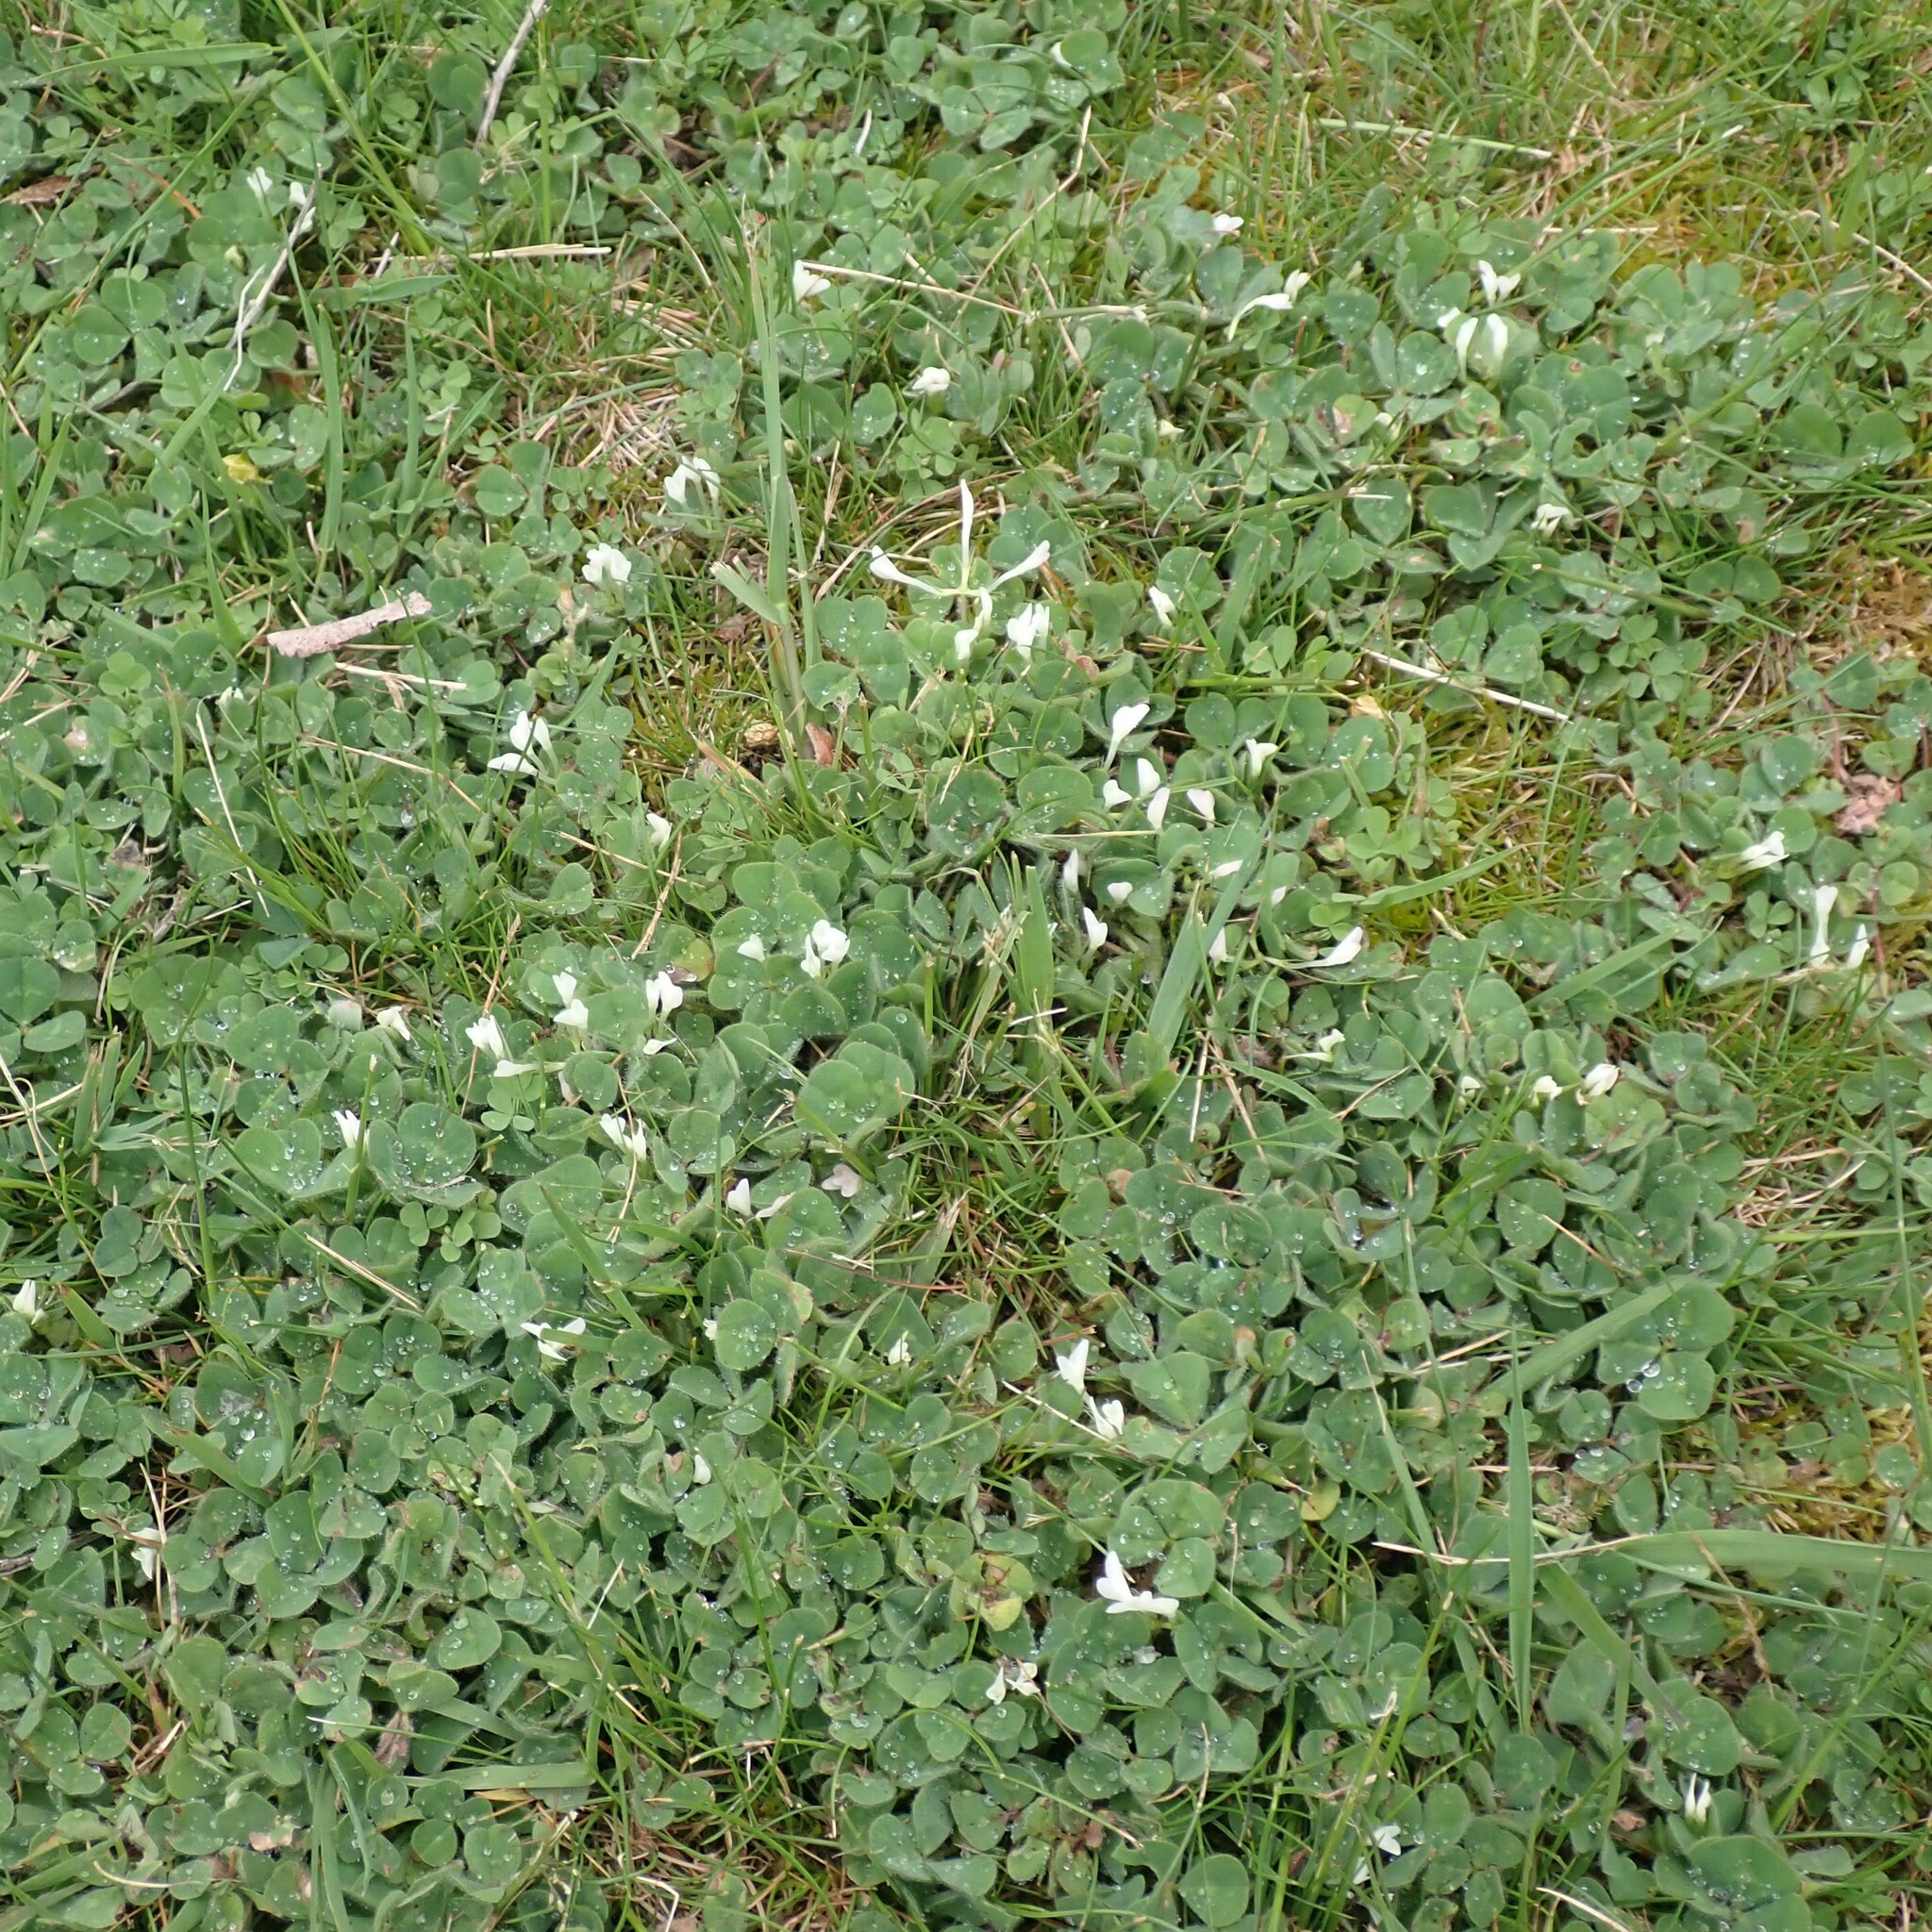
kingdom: Plantae
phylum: Tracheophyta
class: Magnoliopsida
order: Fabales
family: Fabaceae
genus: Trifolium
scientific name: Trifolium subterraneum
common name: Subterranean clover
